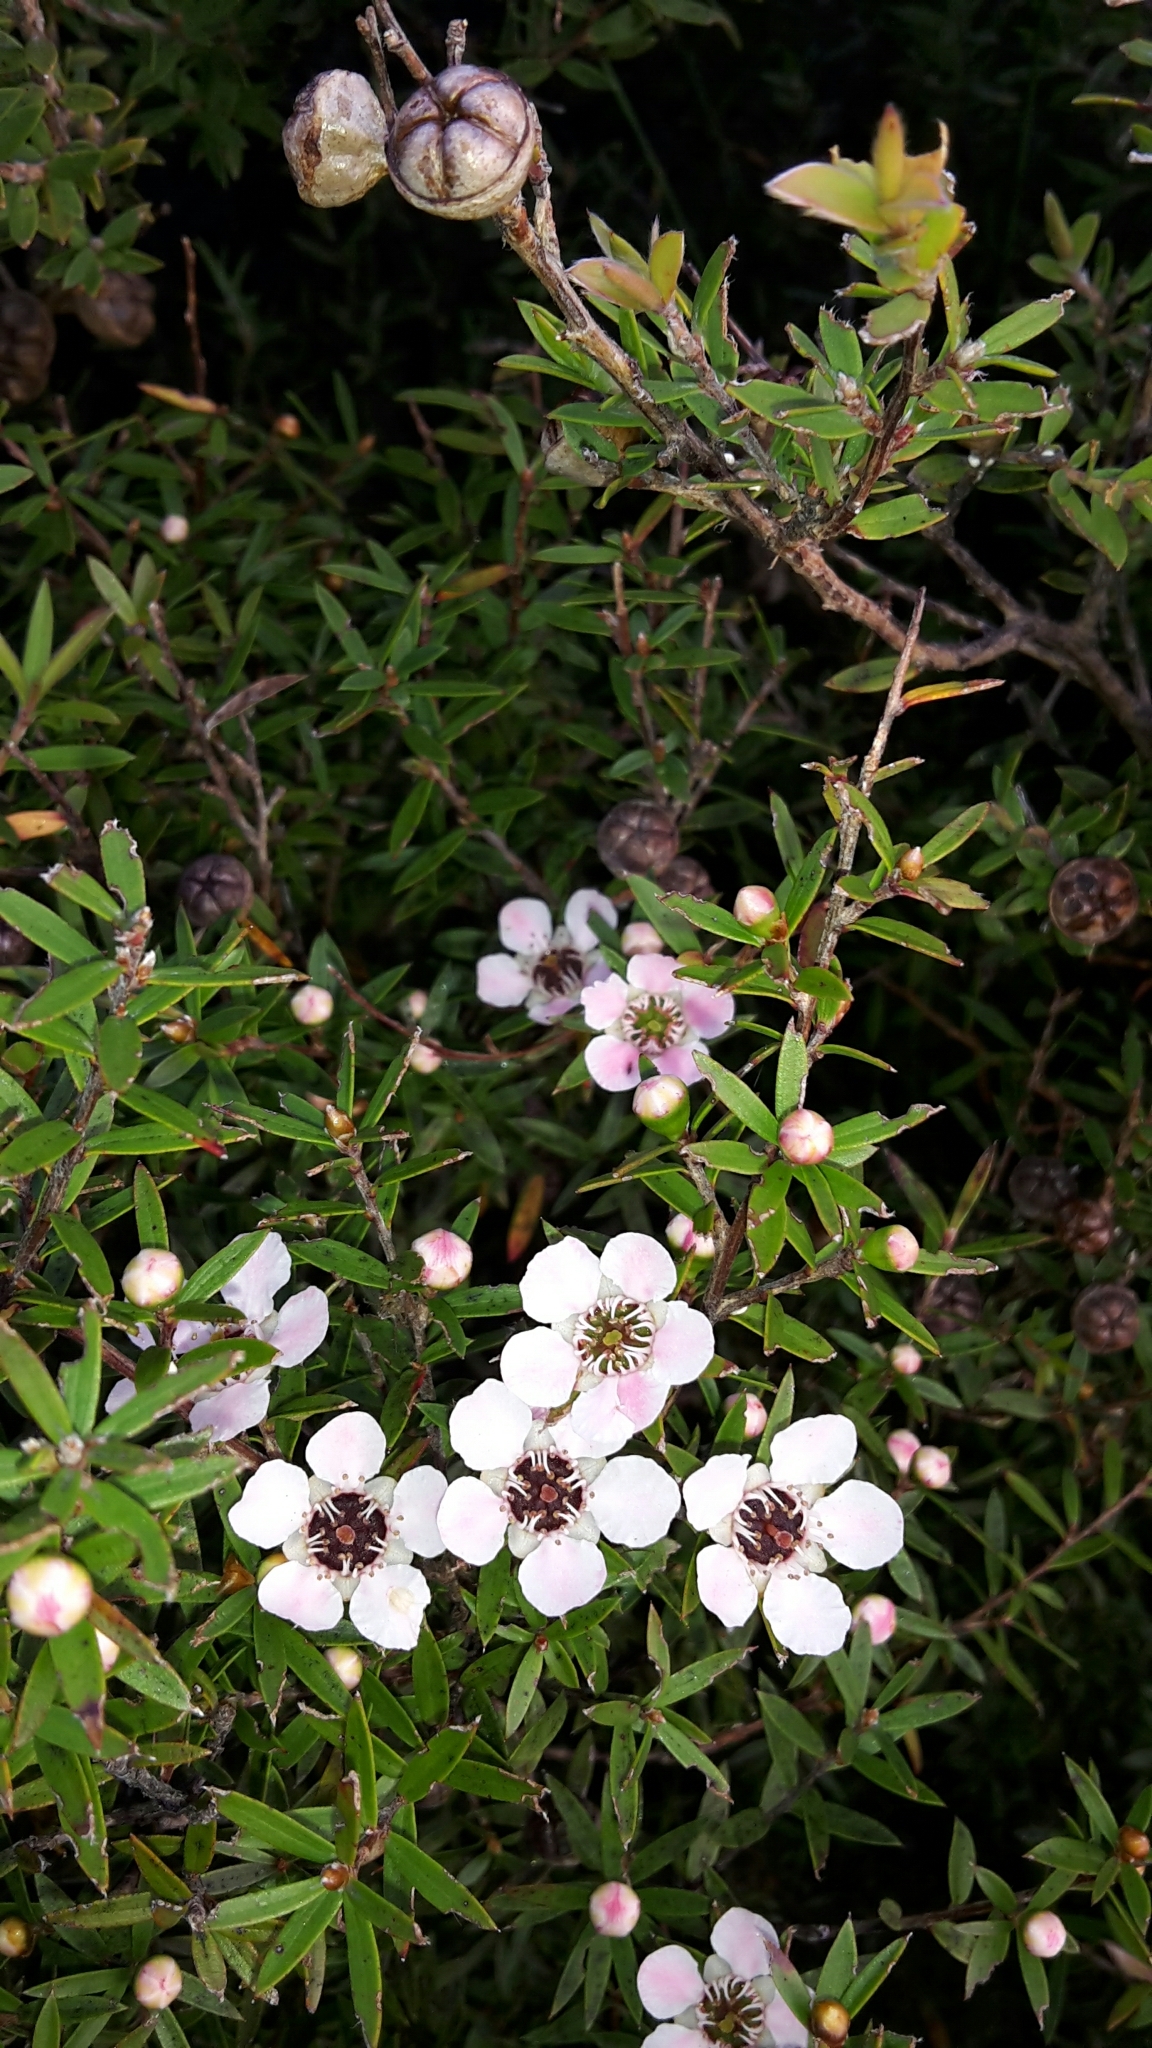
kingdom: Plantae
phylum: Tracheophyta
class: Magnoliopsida
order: Myrtales
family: Myrtaceae
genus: Leptospermum
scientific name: Leptospermum scoparium
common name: Broom tea-tree
